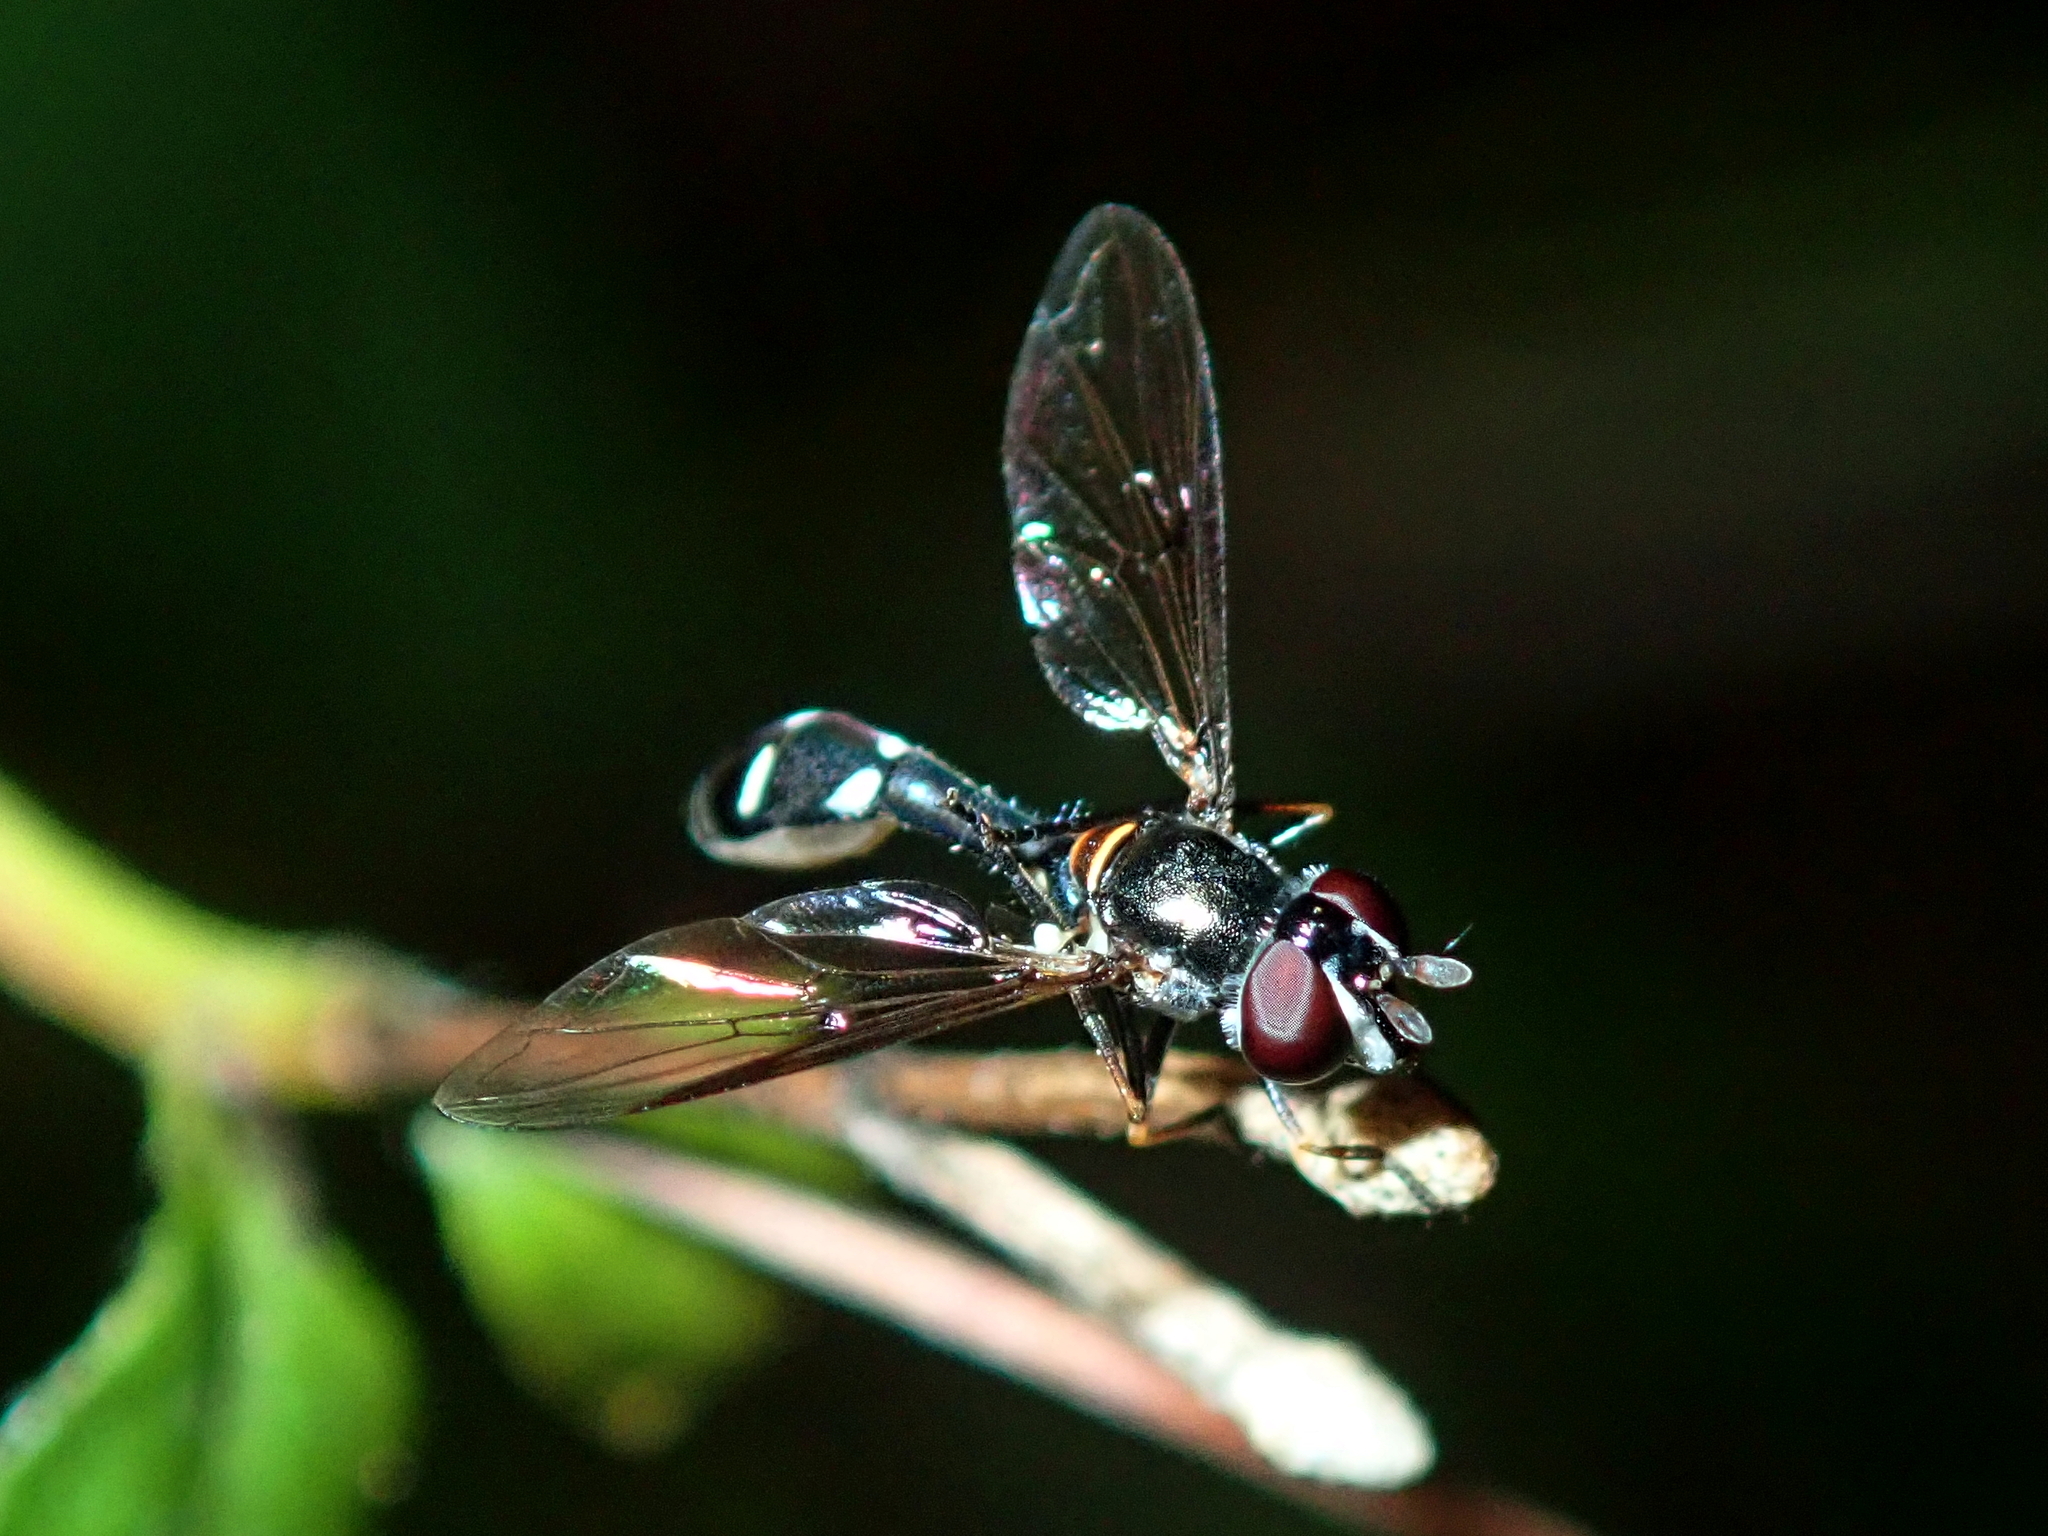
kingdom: Animalia
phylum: Arthropoda
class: Insecta
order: Diptera
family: Syrphidae
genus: Dioprosopa
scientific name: Dioprosopa clavatus
